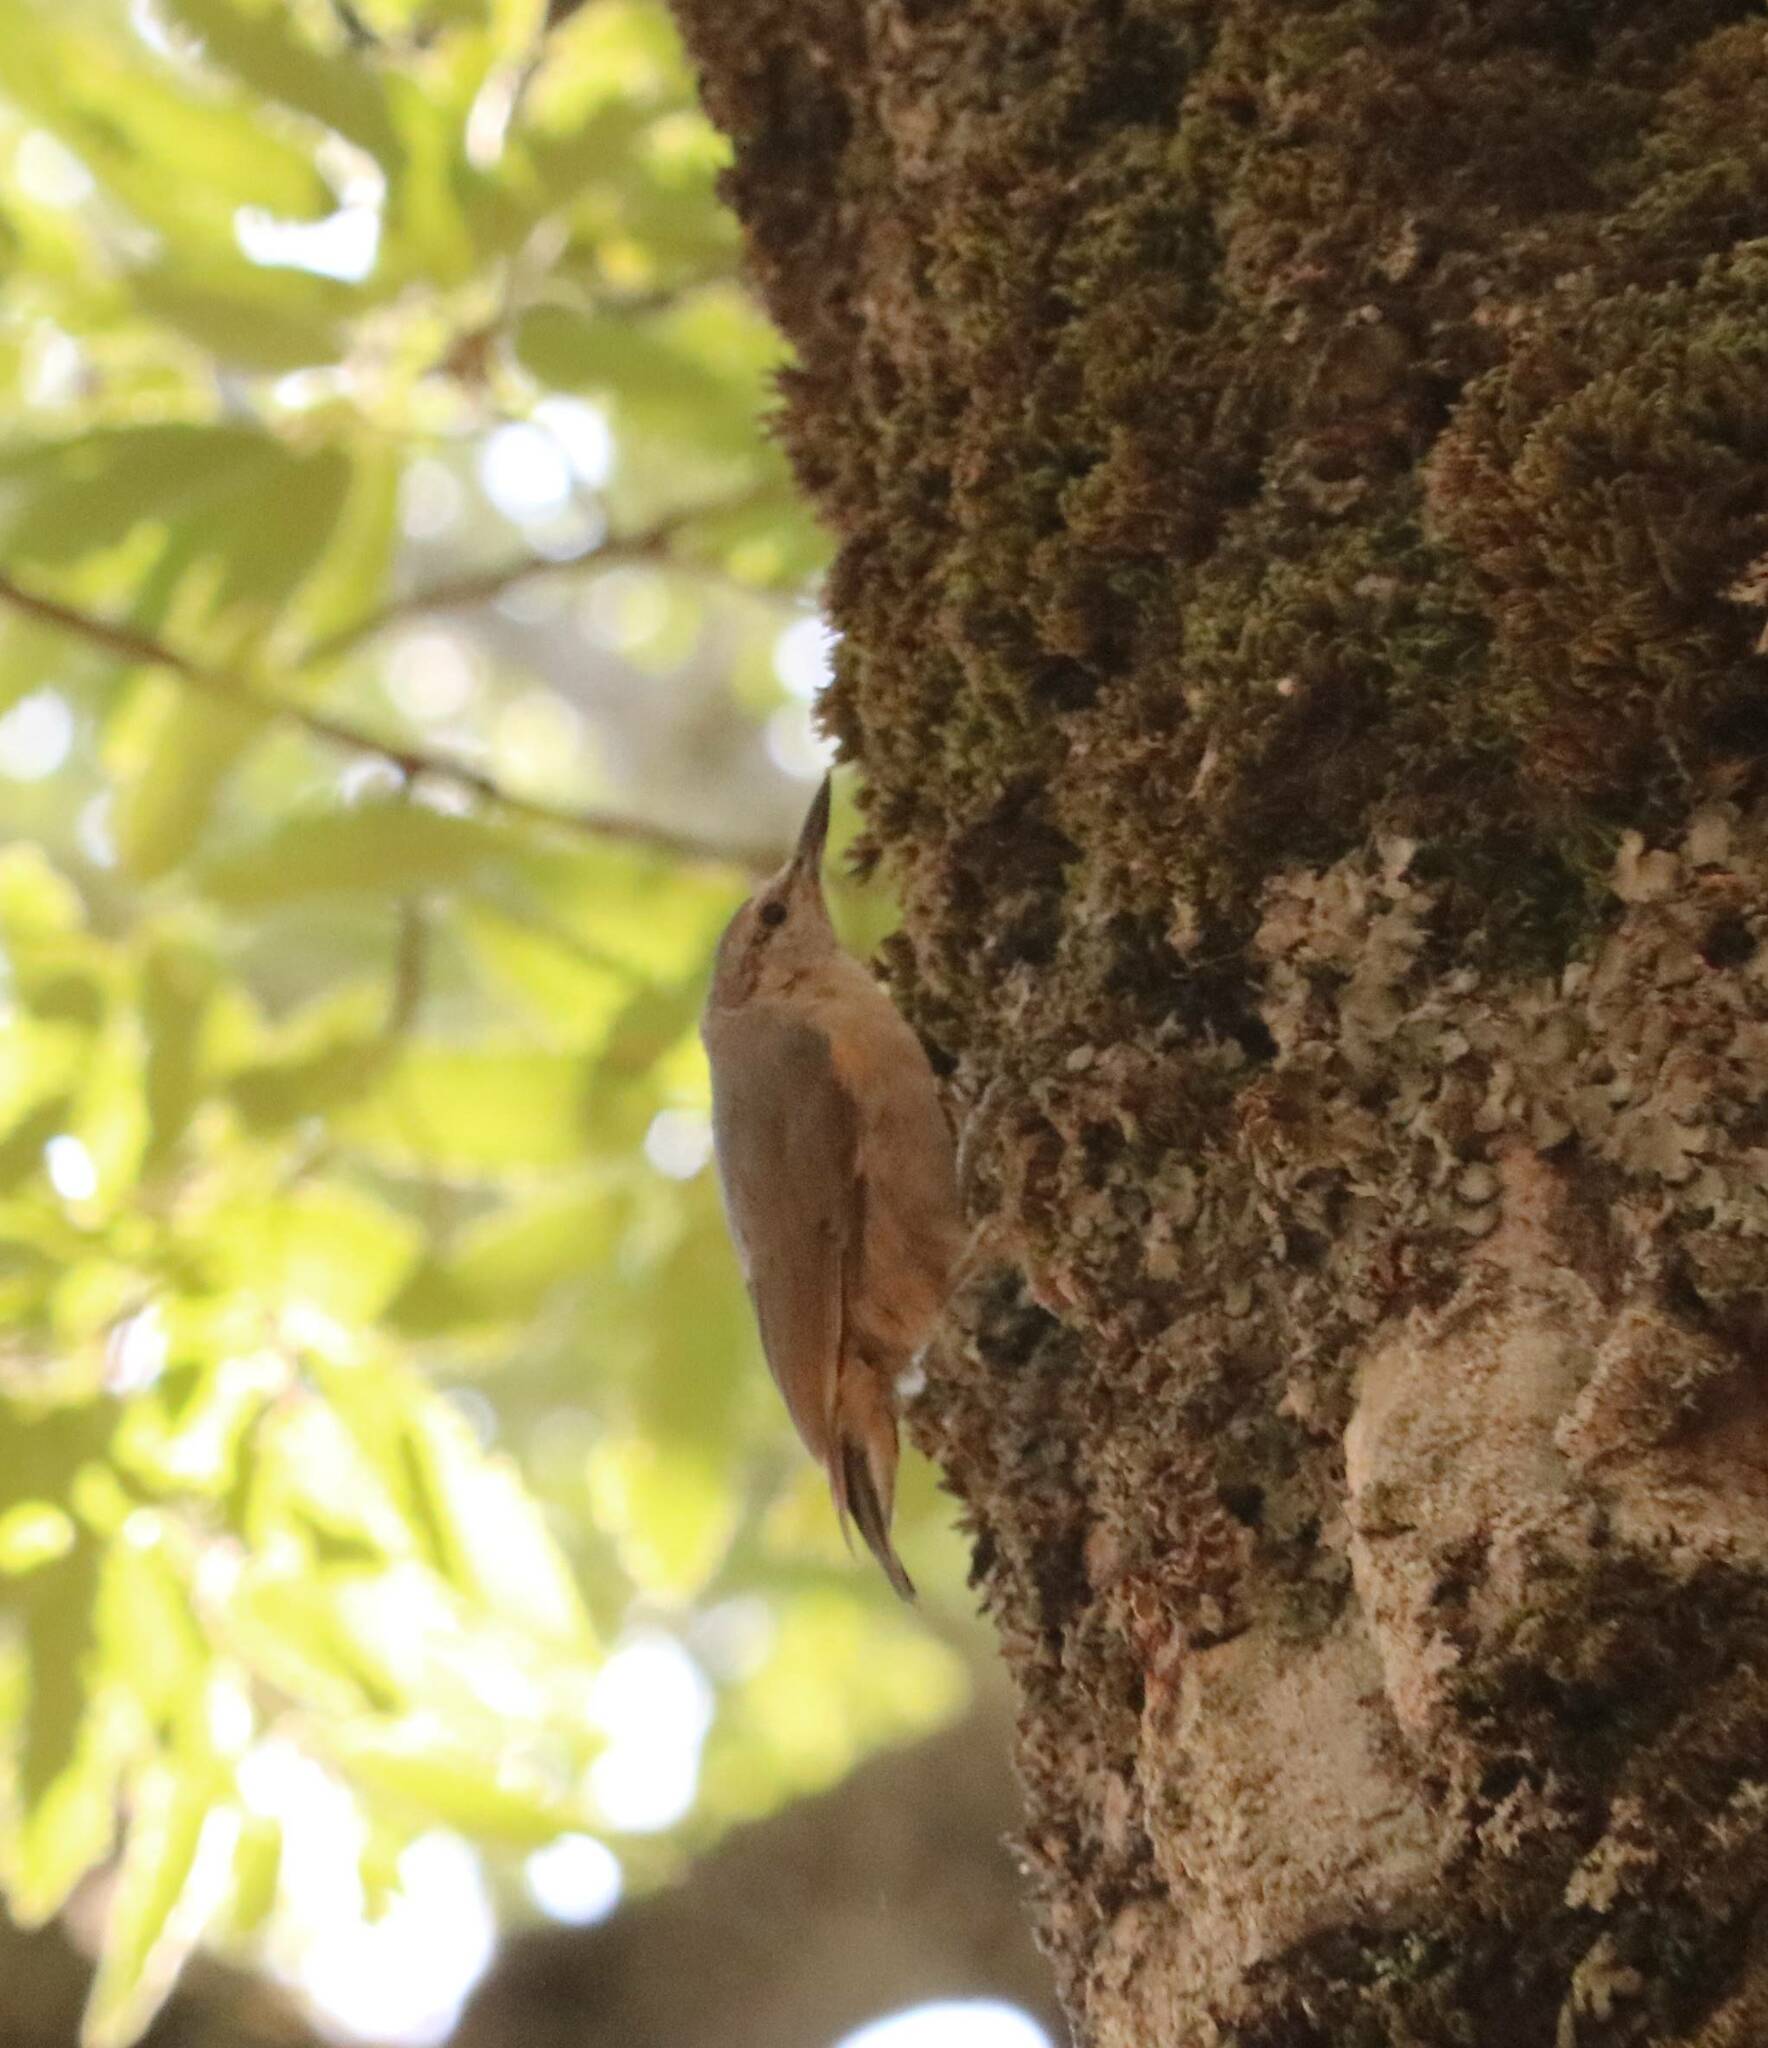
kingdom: Animalia
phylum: Chordata
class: Aves
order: Passeriformes
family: Sittidae
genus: Sitta
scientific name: Sitta ledanti
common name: Algerian nuthatch
